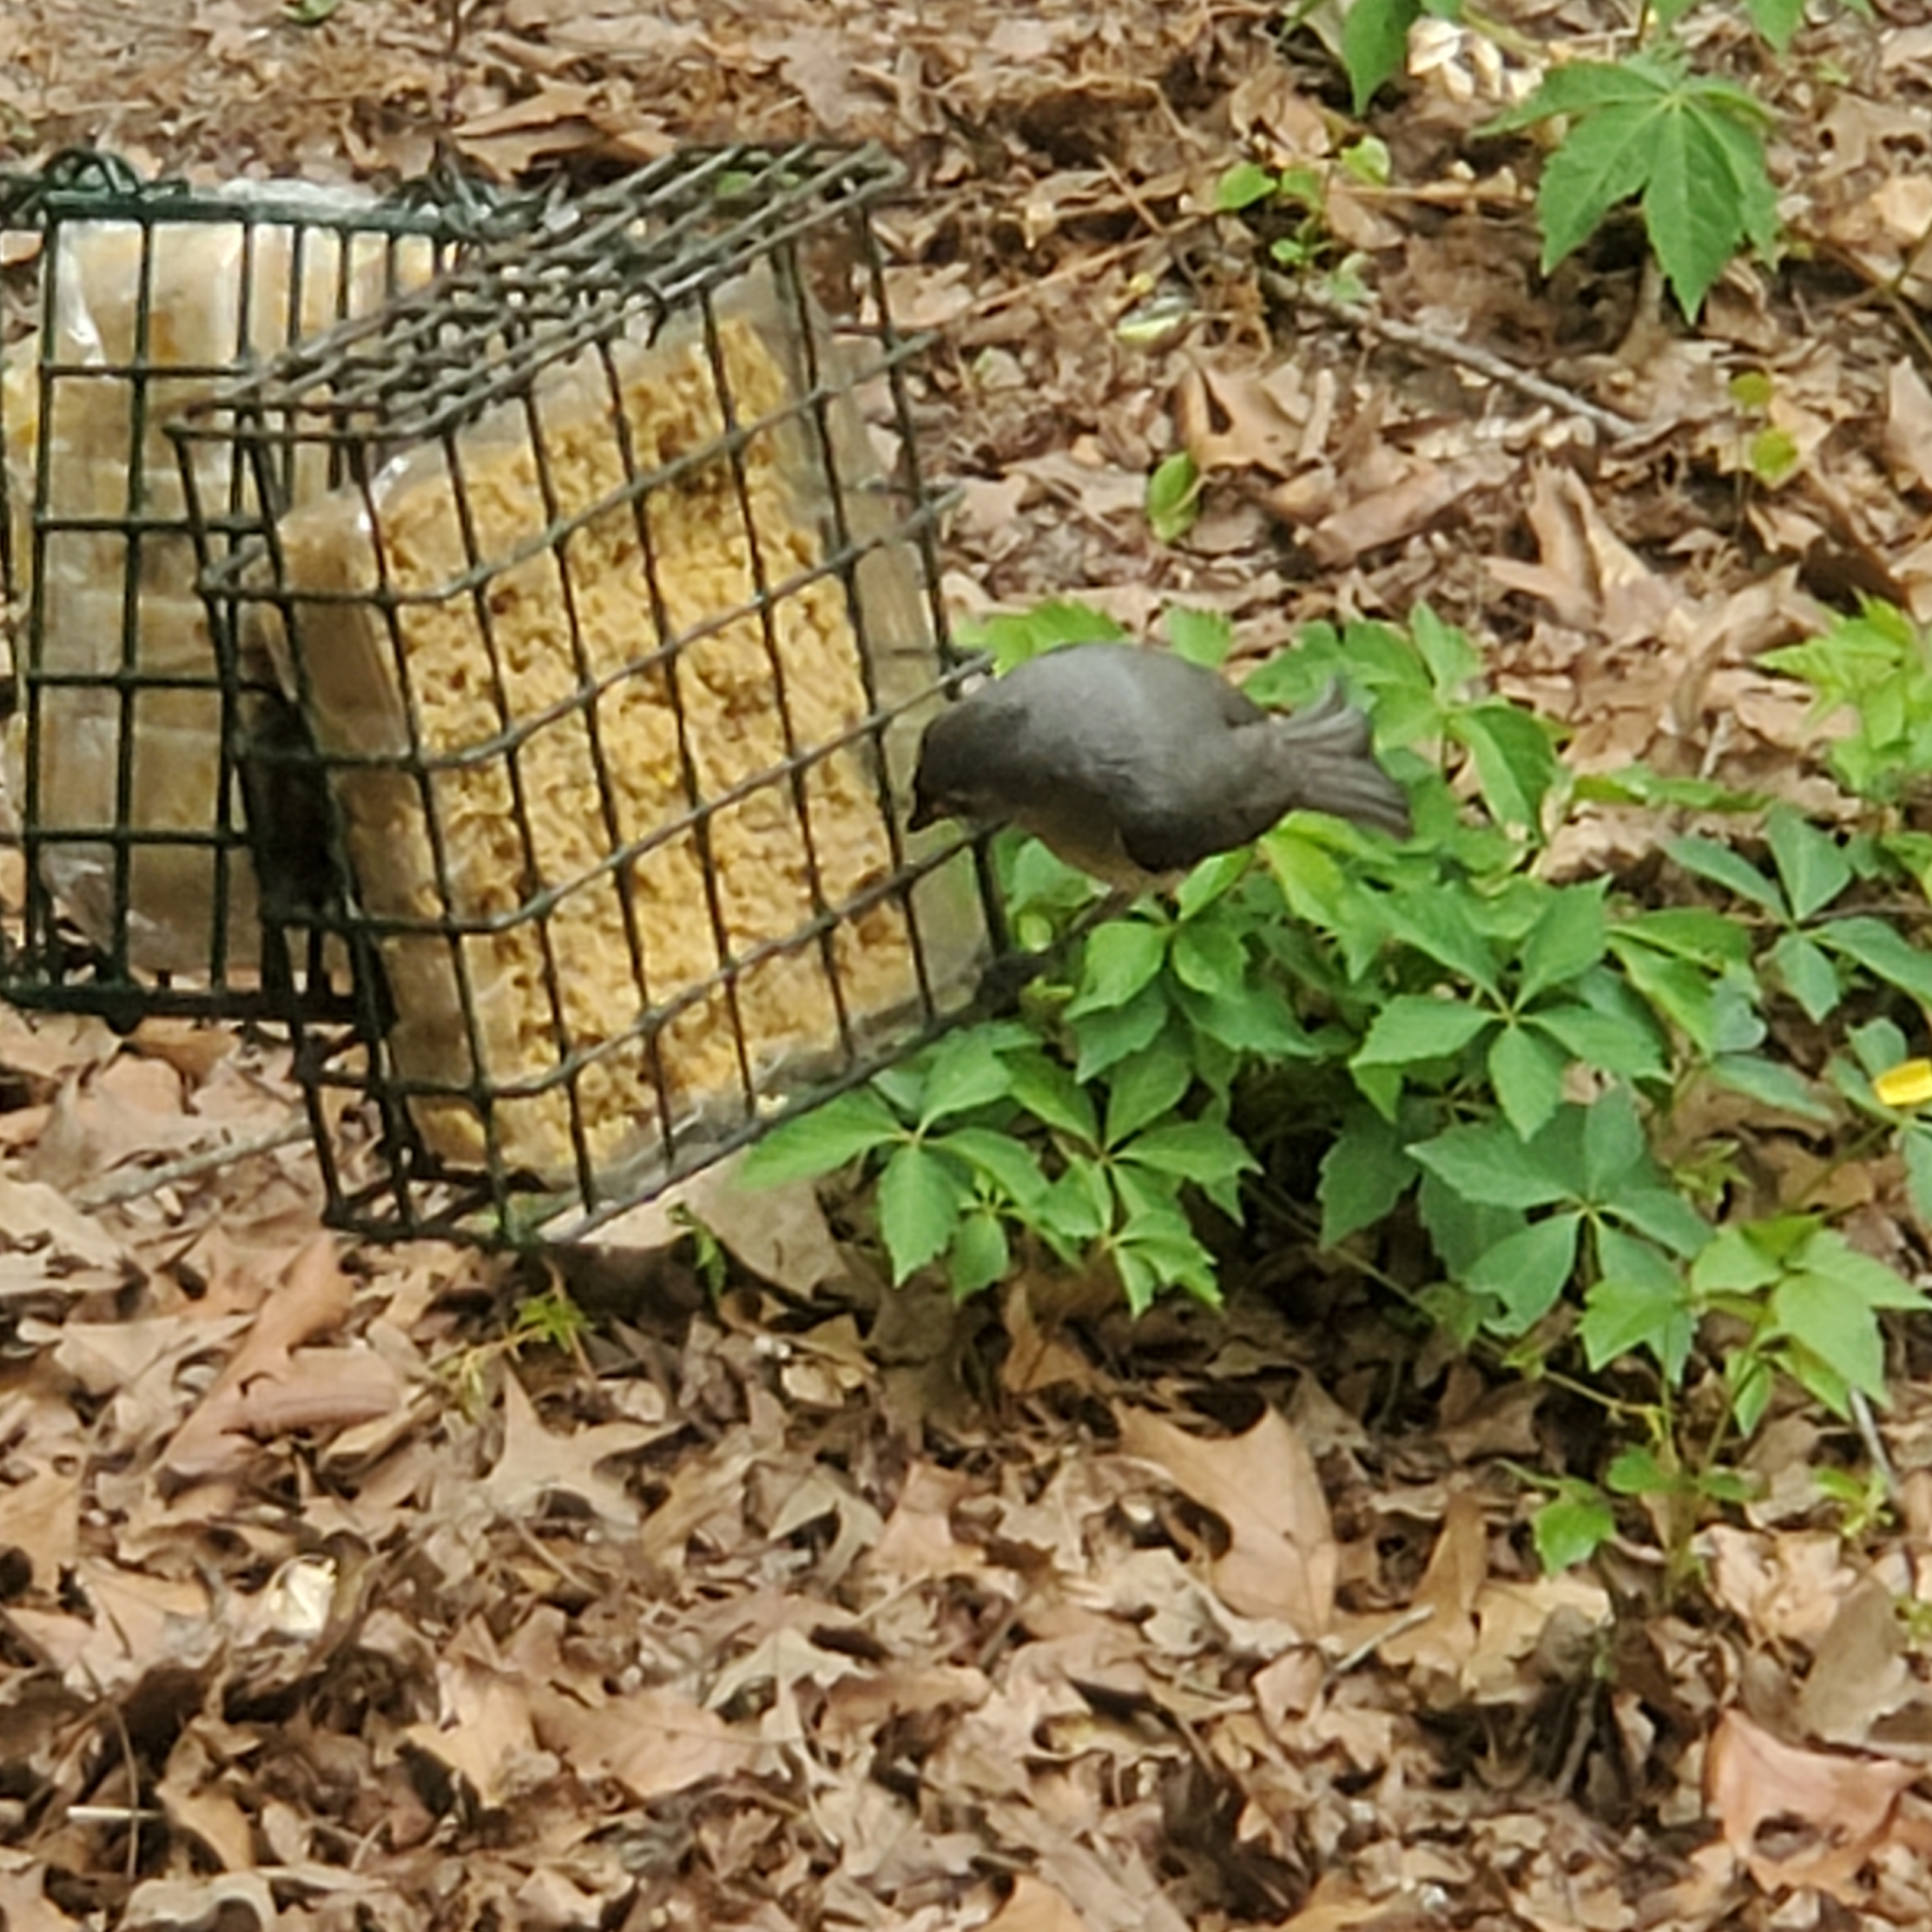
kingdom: Animalia
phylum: Chordata
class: Aves
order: Passeriformes
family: Paridae
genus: Baeolophus
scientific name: Baeolophus bicolor
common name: Tufted titmouse
